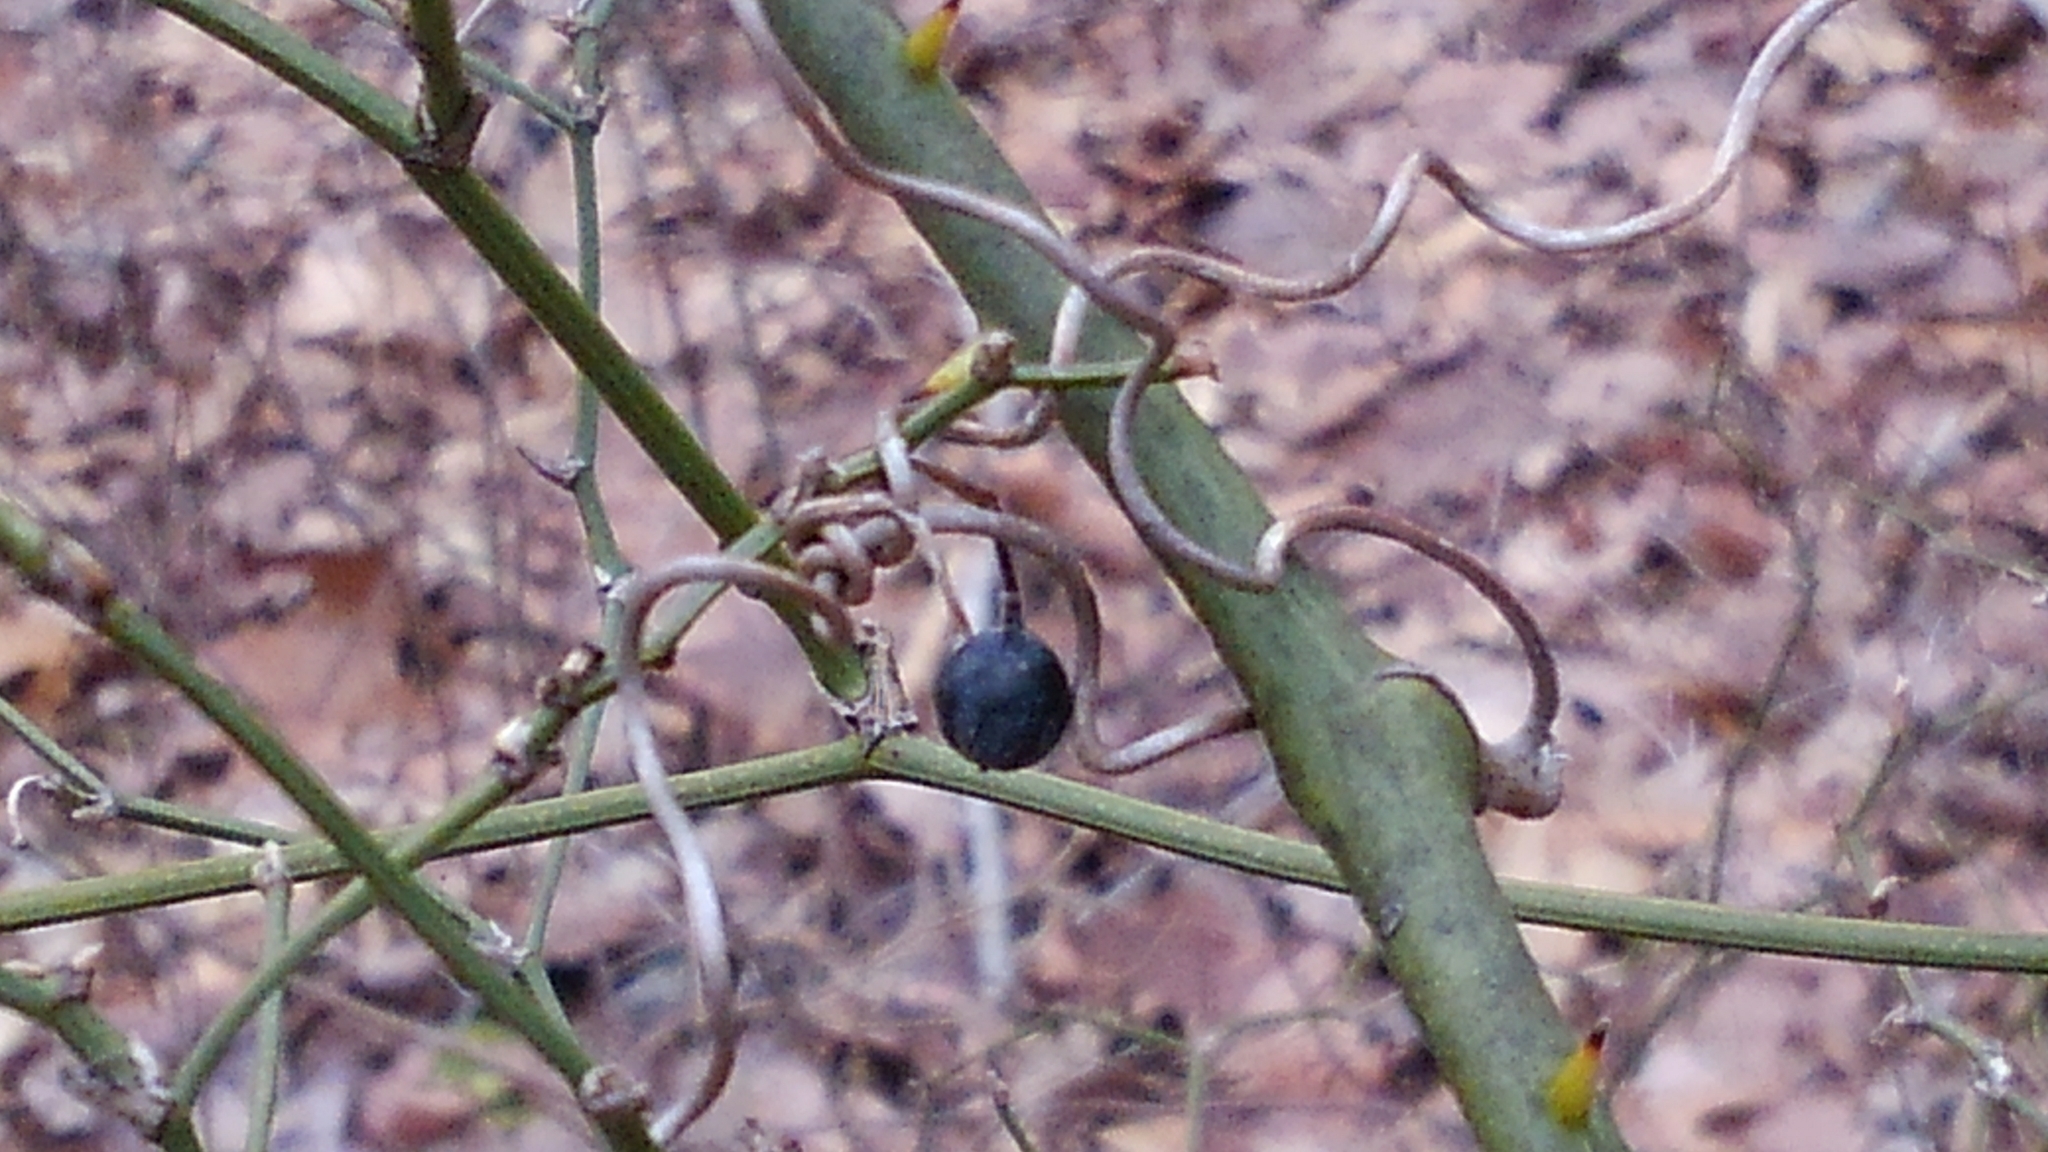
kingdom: Plantae
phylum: Tracheophyta
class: Liliopsida
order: Liliales
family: Smilacaceae
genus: Smilax
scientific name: Smilax rotundifolia
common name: Bullbriar
